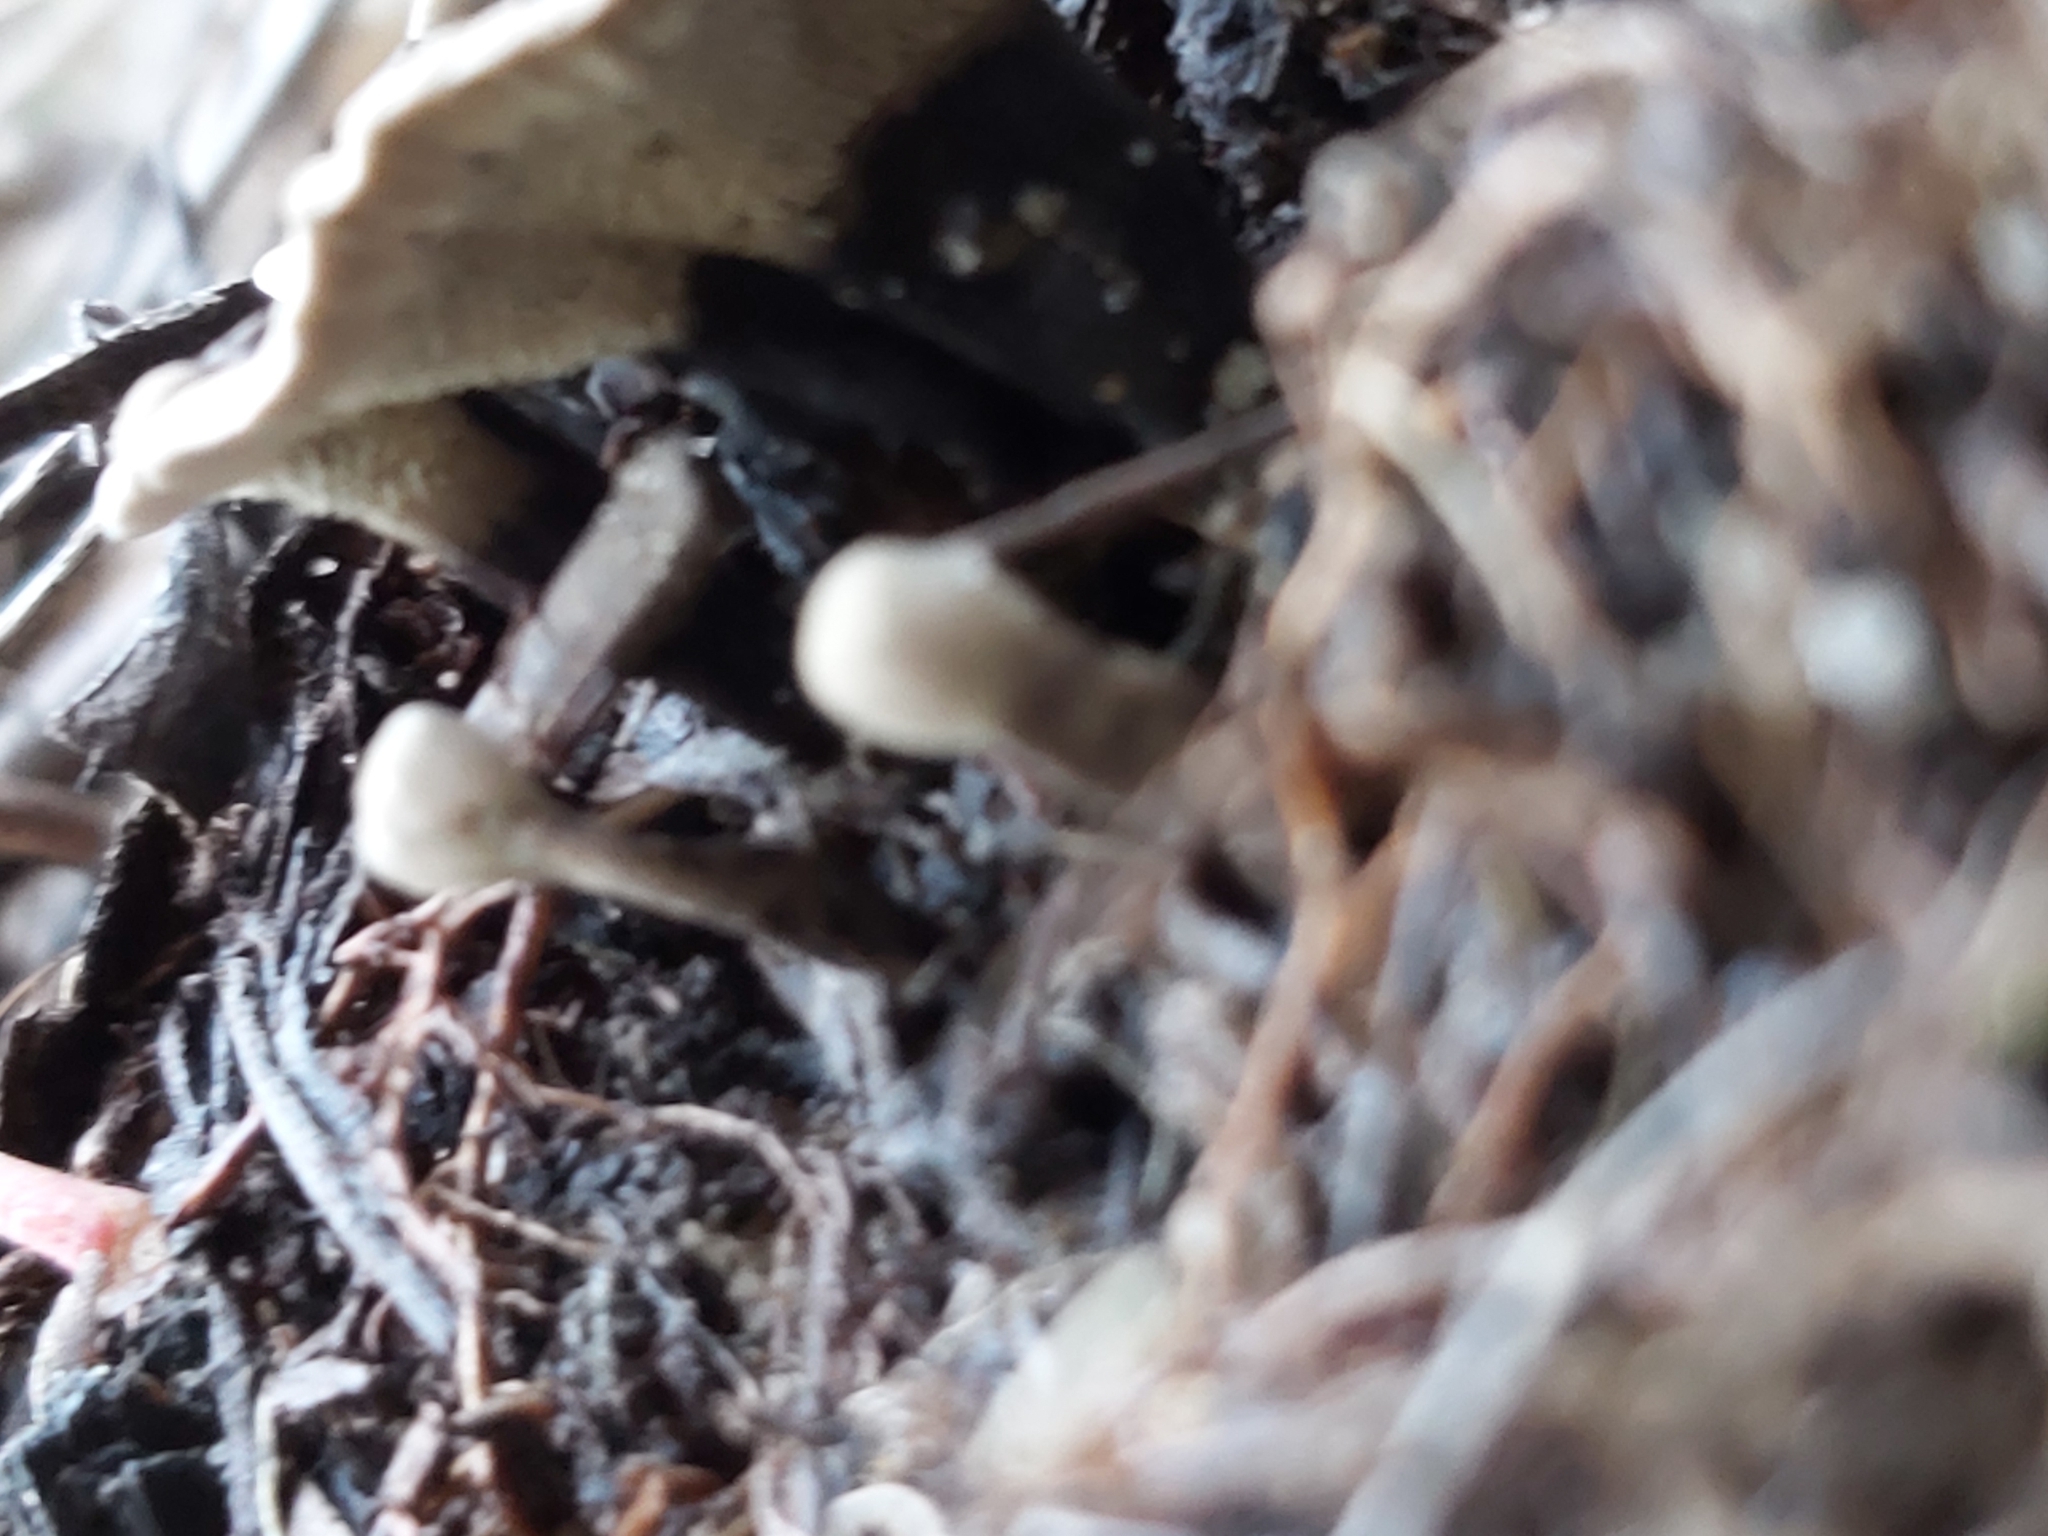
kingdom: Fungi
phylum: Basidiomycota
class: Agaricomycetes
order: Thelephorales
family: Thelephoraceae
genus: Phellodon
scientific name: Phellodon niger
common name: Black tooth
